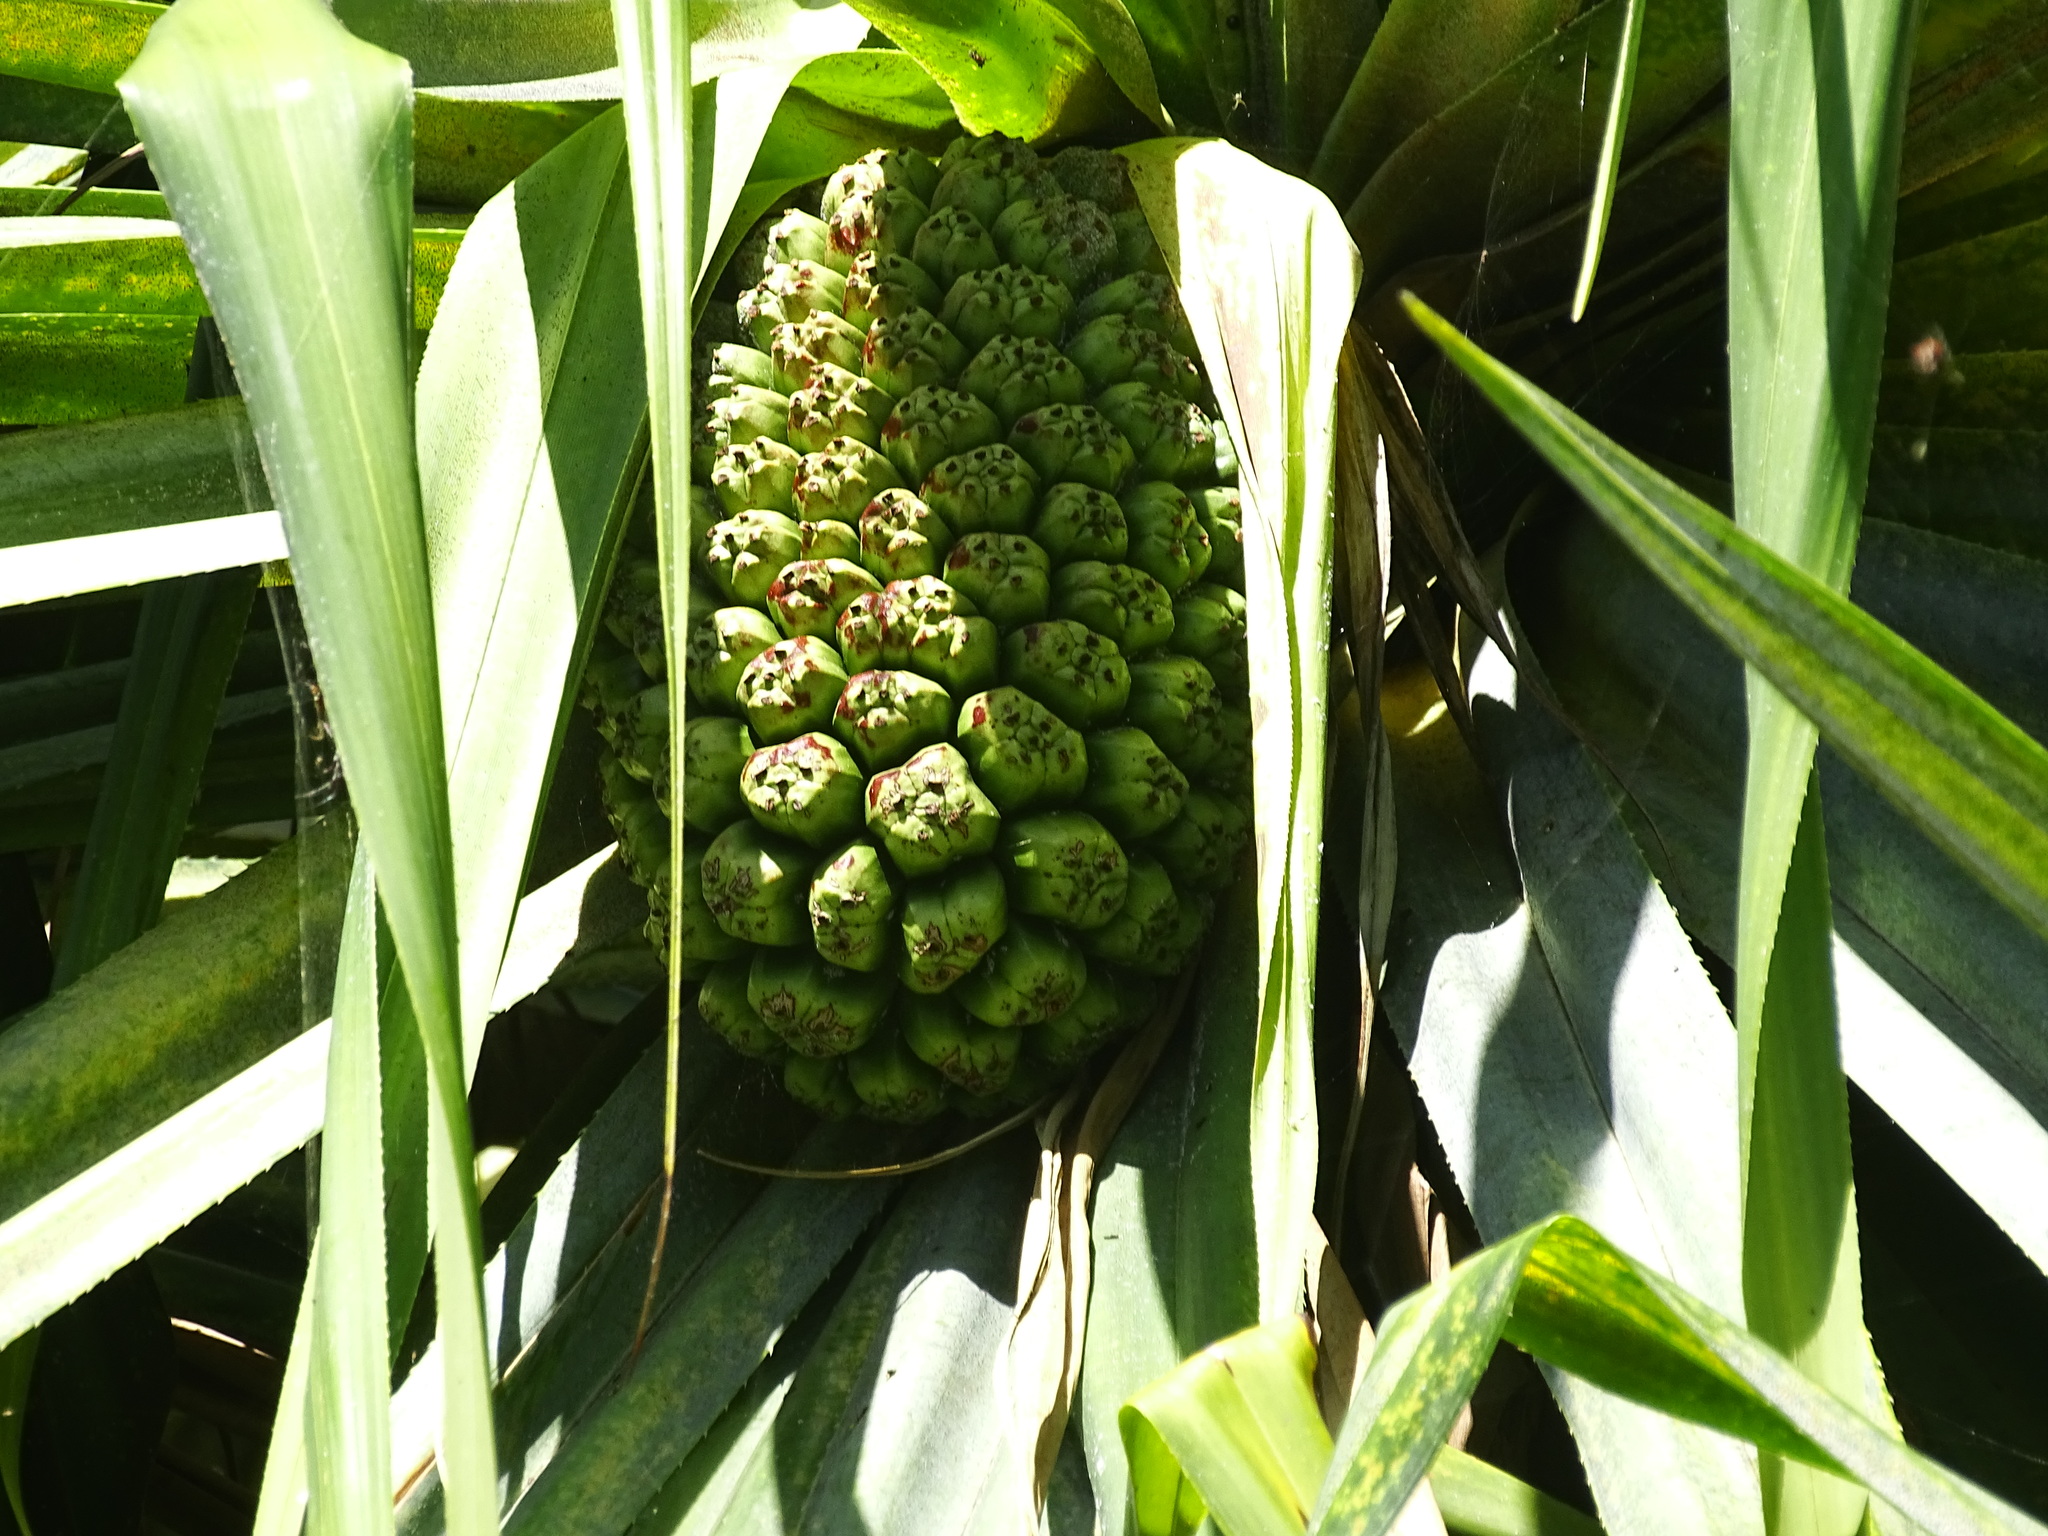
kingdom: Plantae
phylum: Tracheophyta
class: Liliopsida
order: Pandanales
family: Pandanaceae
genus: Pandanus
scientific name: Pandanus tectorius
